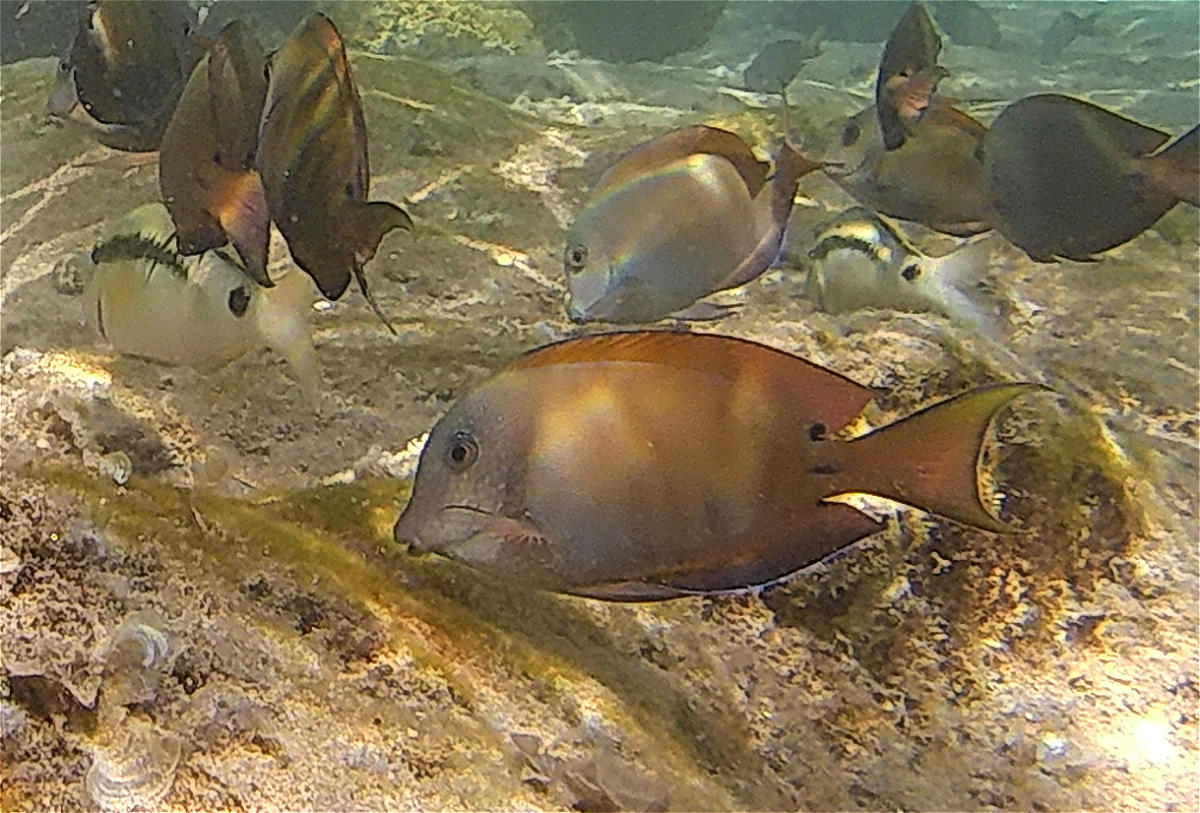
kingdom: Animalia
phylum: Chordata
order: Perciformes
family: Acanthuridae
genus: Acanthurus
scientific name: Acanthurus nigrofuscus
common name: Blackspot surgeonfish
